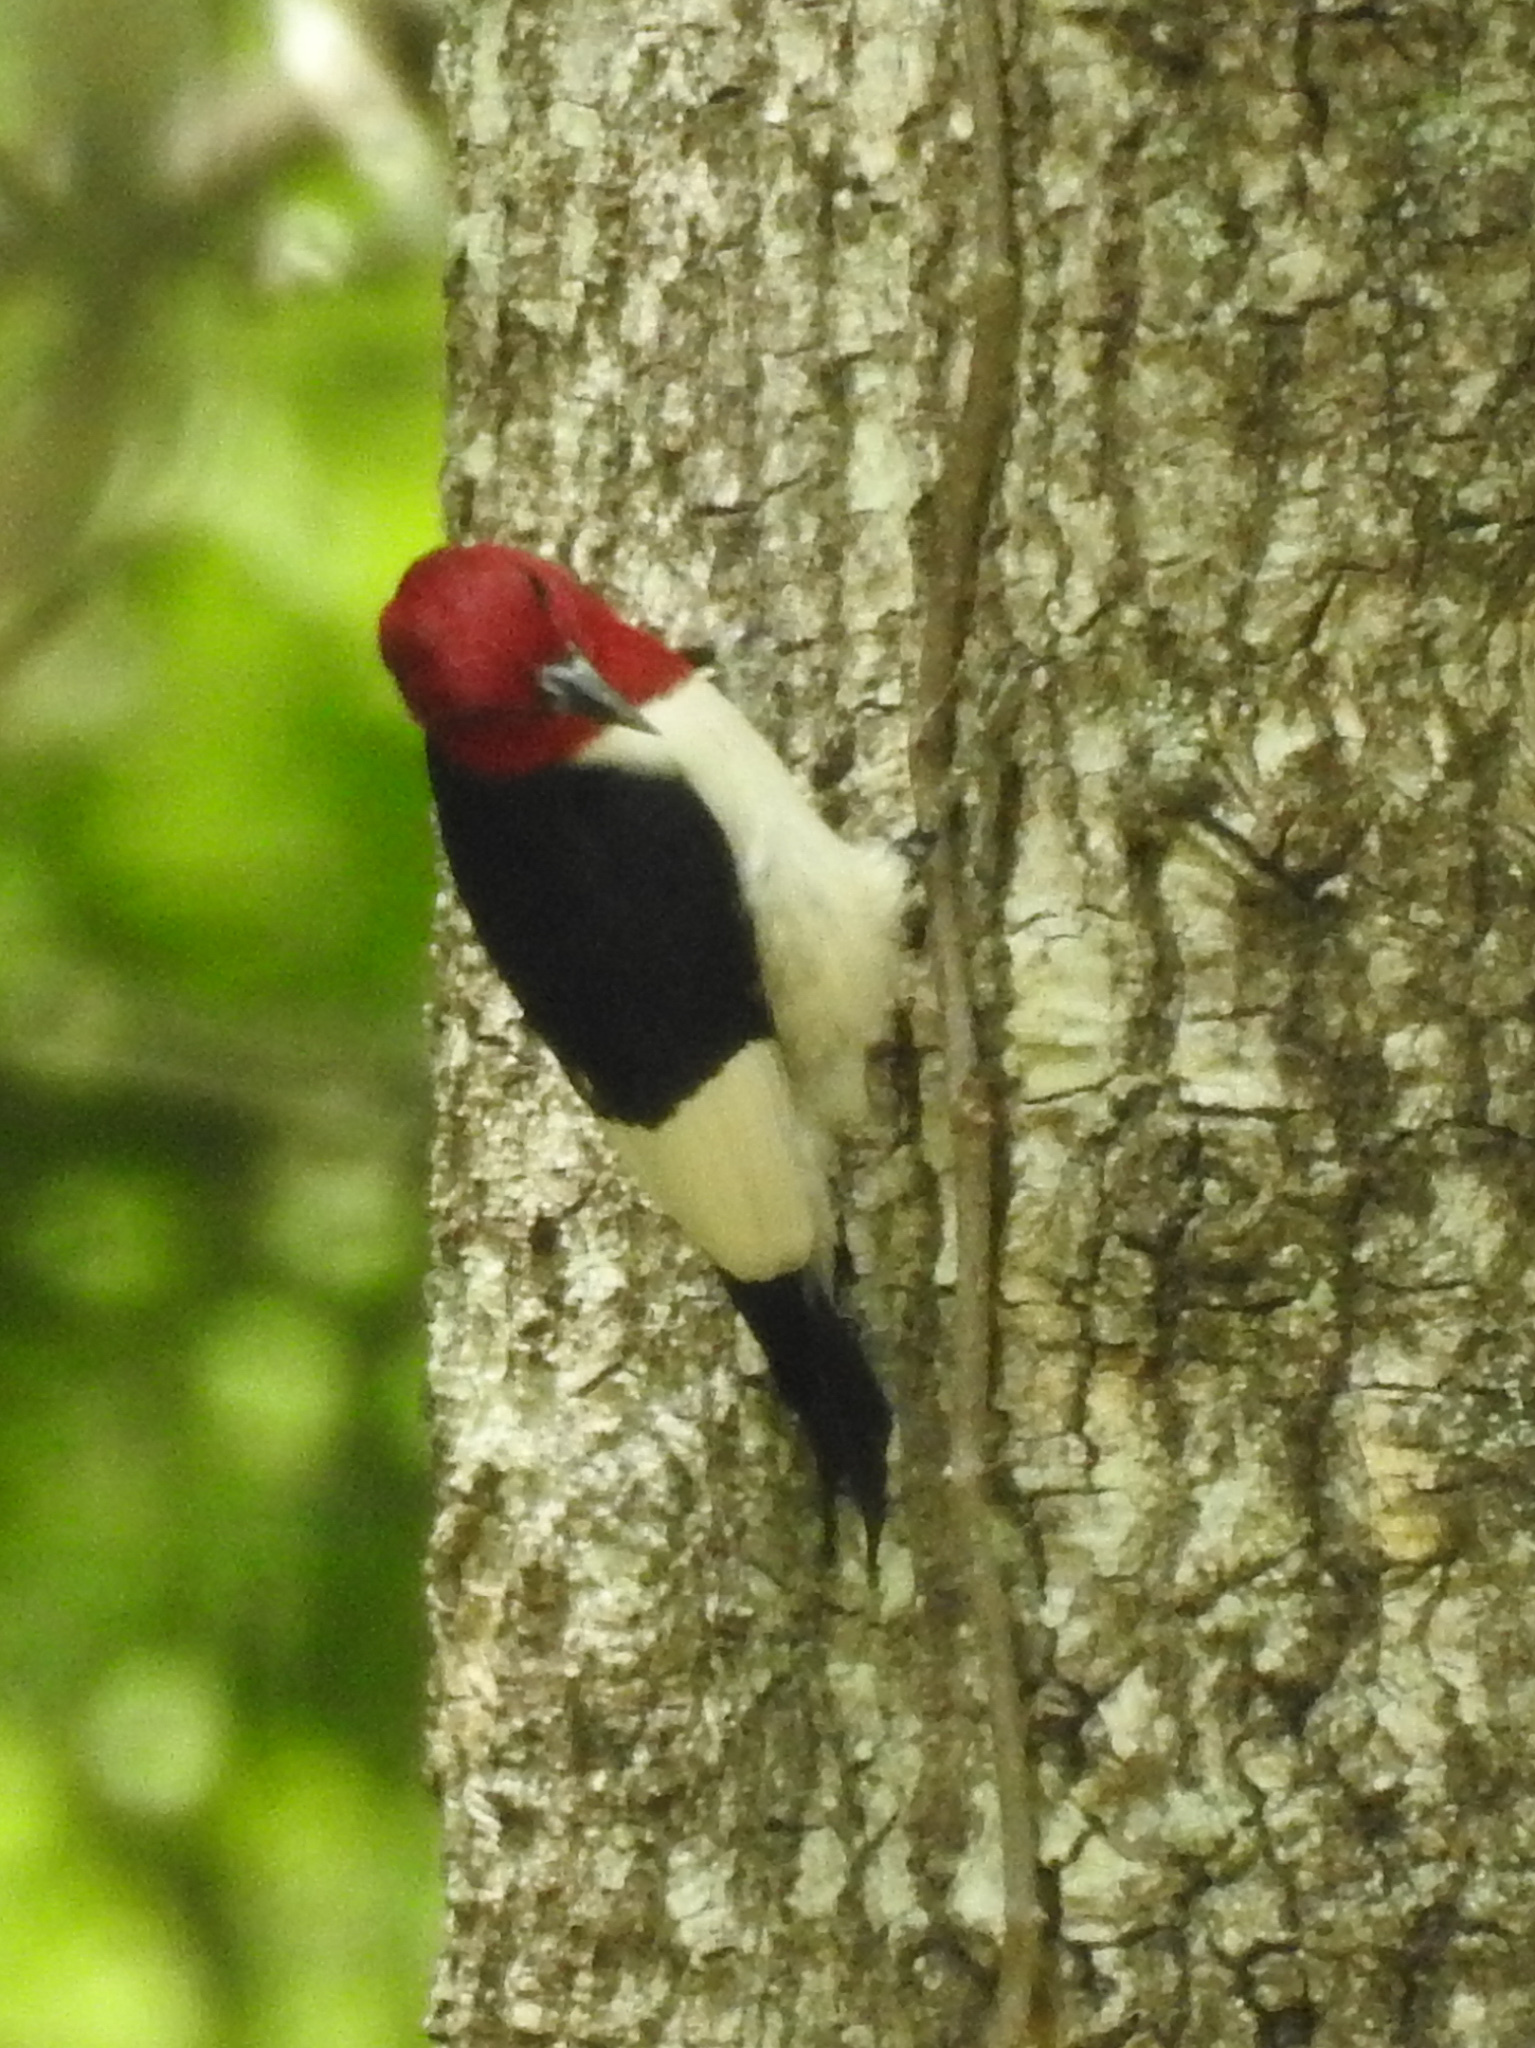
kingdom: Animalia
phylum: Chordata
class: Aves
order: Piciformes
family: Picidae
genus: Melanerpes
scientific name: Melanerpes erythrocephalus
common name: Red-headed woodpecker
